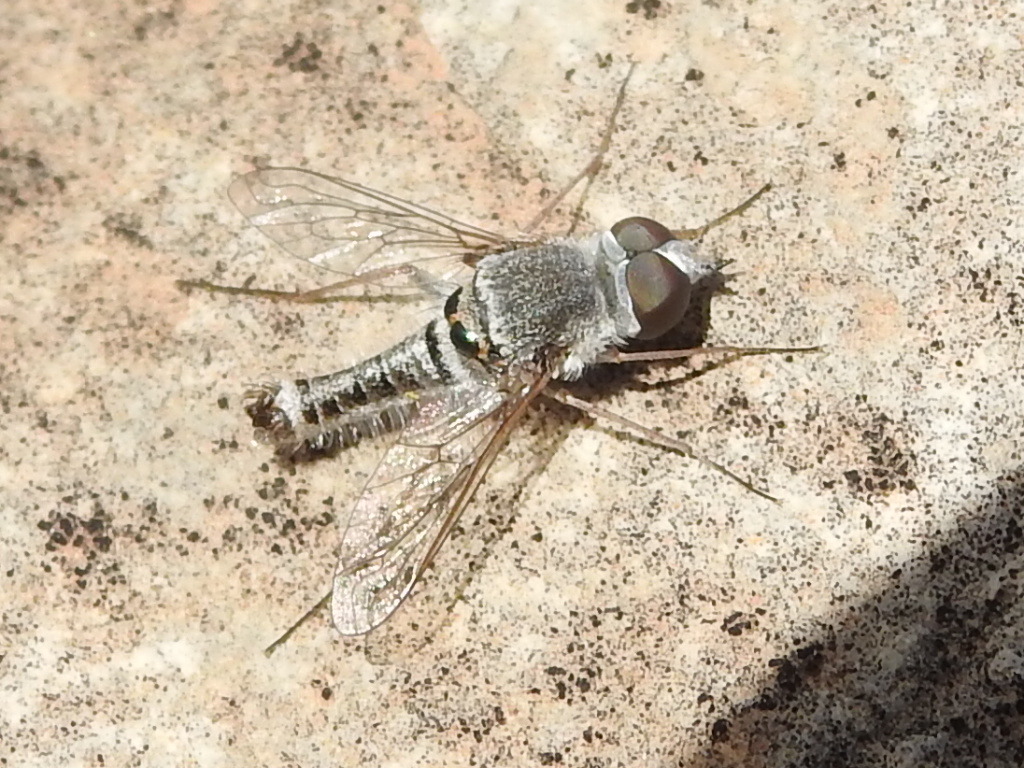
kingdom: Animalia
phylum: Arthropoda
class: Insecta
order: Diptera
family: Bombyliidae
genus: Aphoebantus
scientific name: Aphoebantus conurus
